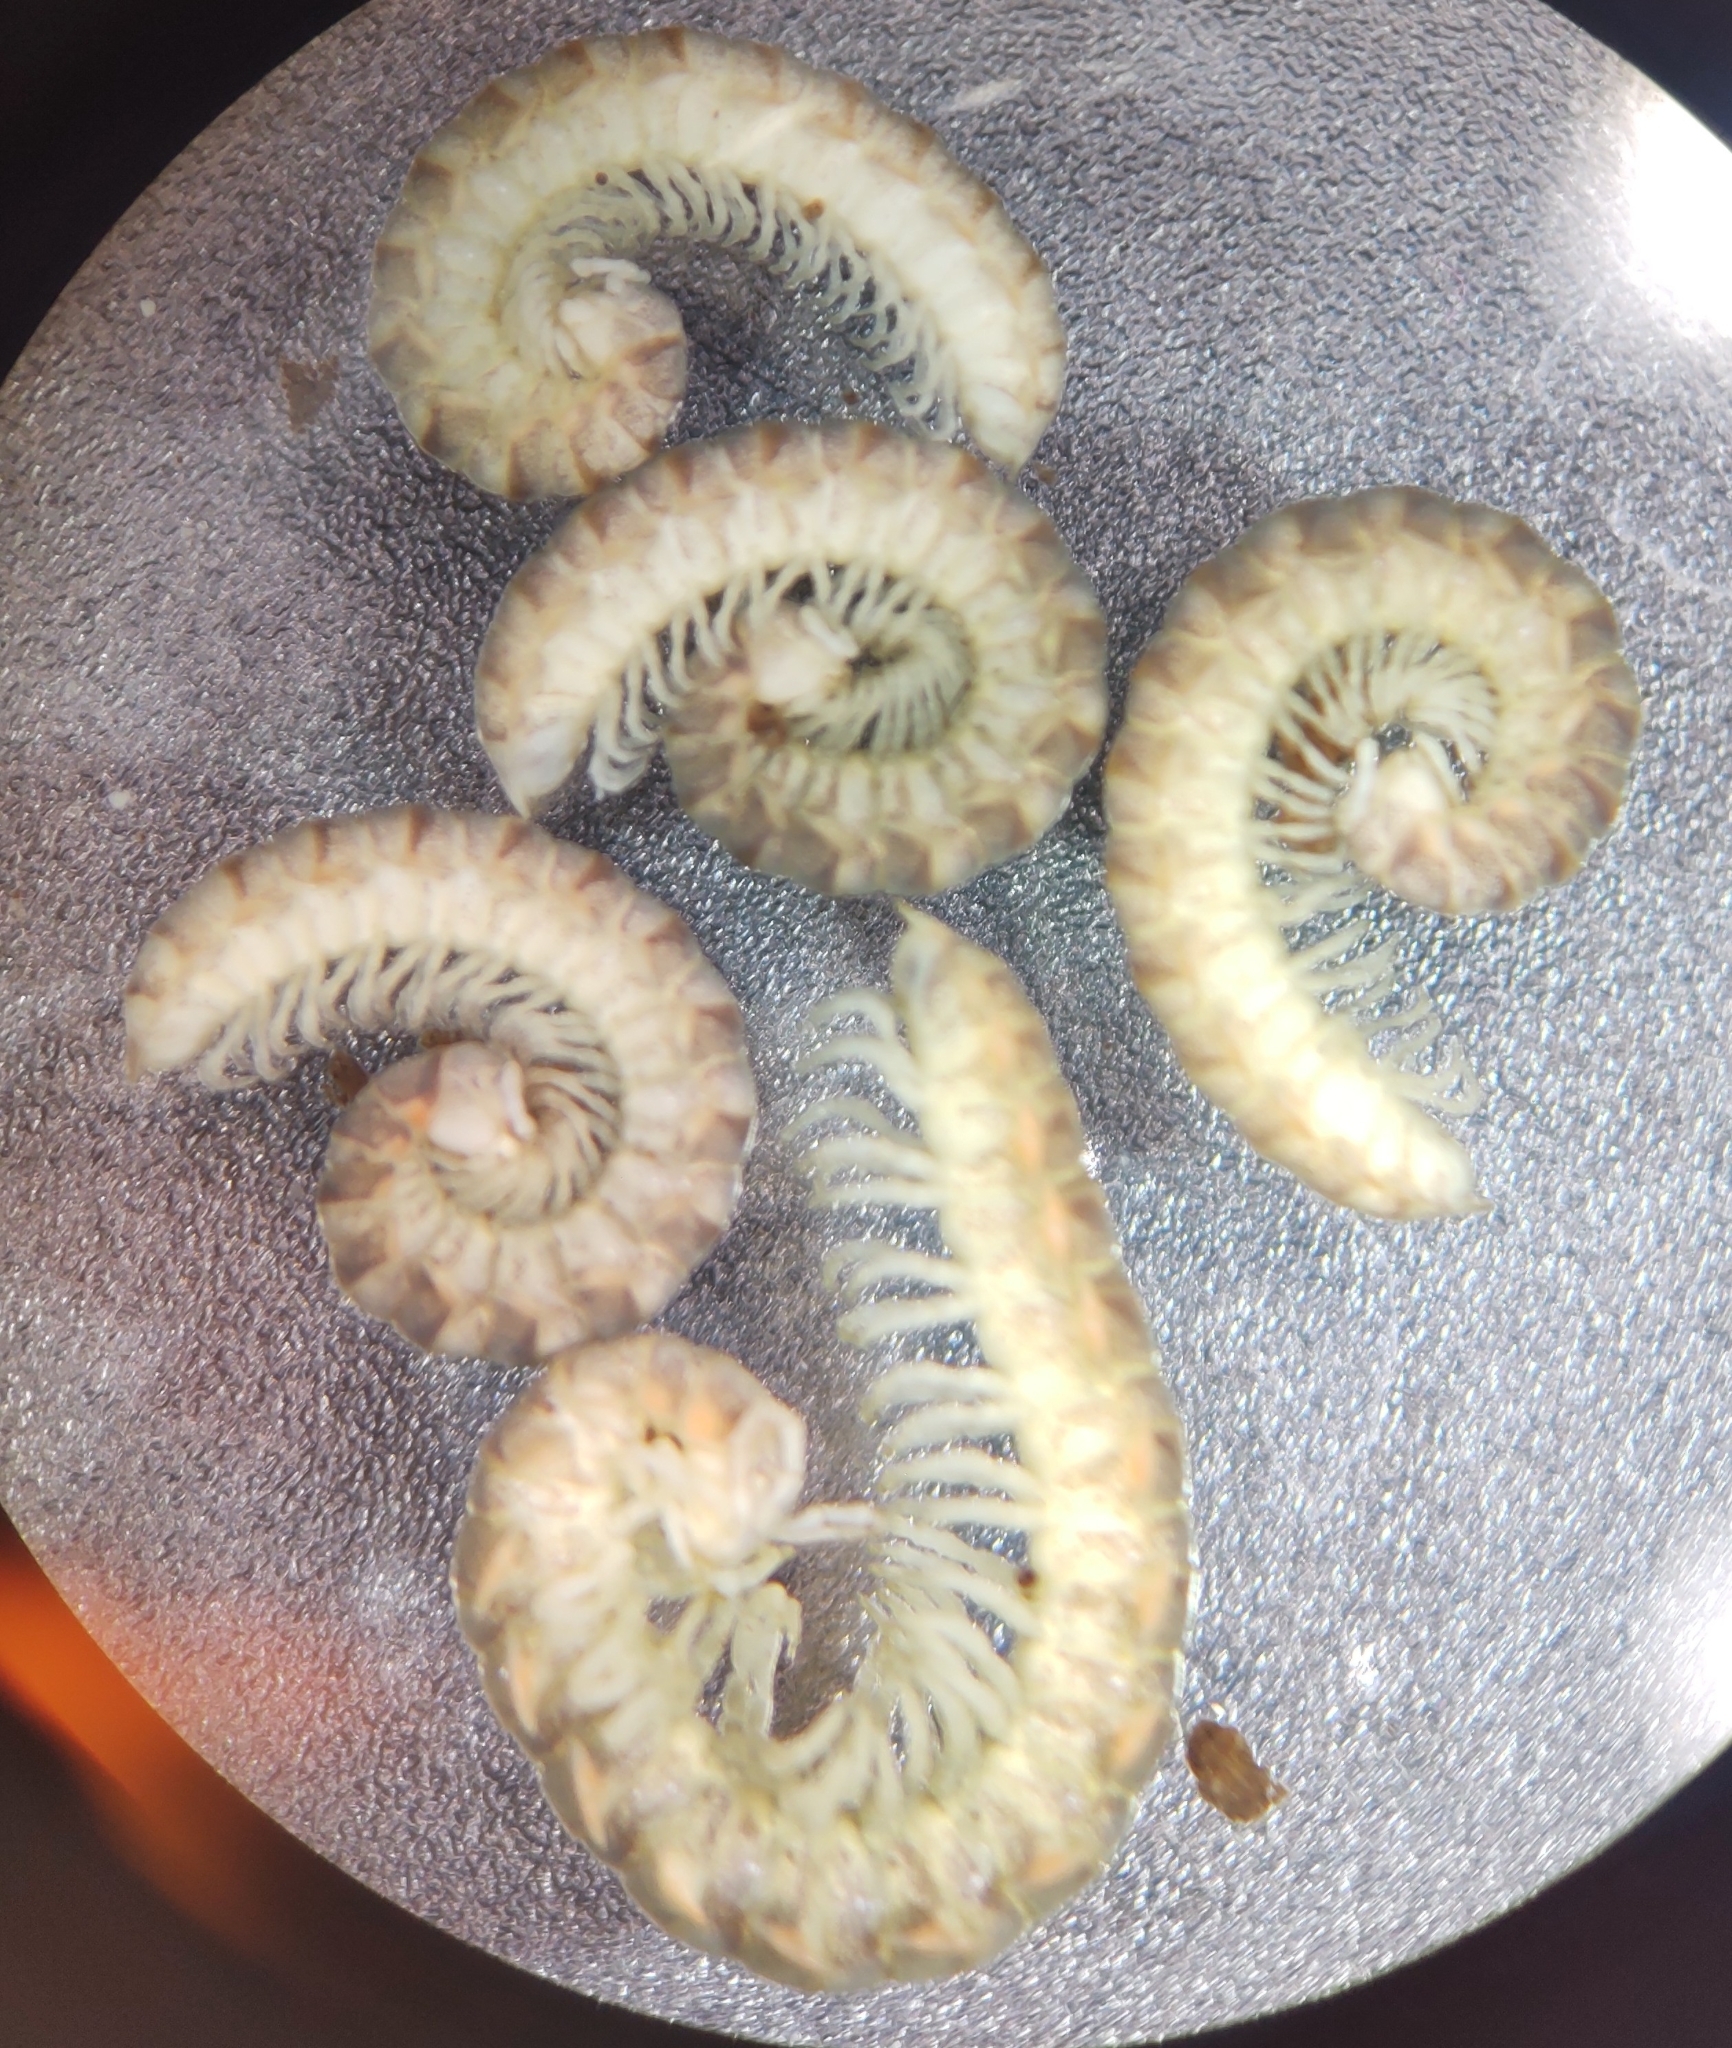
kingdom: Animalia
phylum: Arthropoda
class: Diplopoda
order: Polydesmida
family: Xystodesmidae
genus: Euryurus
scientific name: Euryurus maculatus
